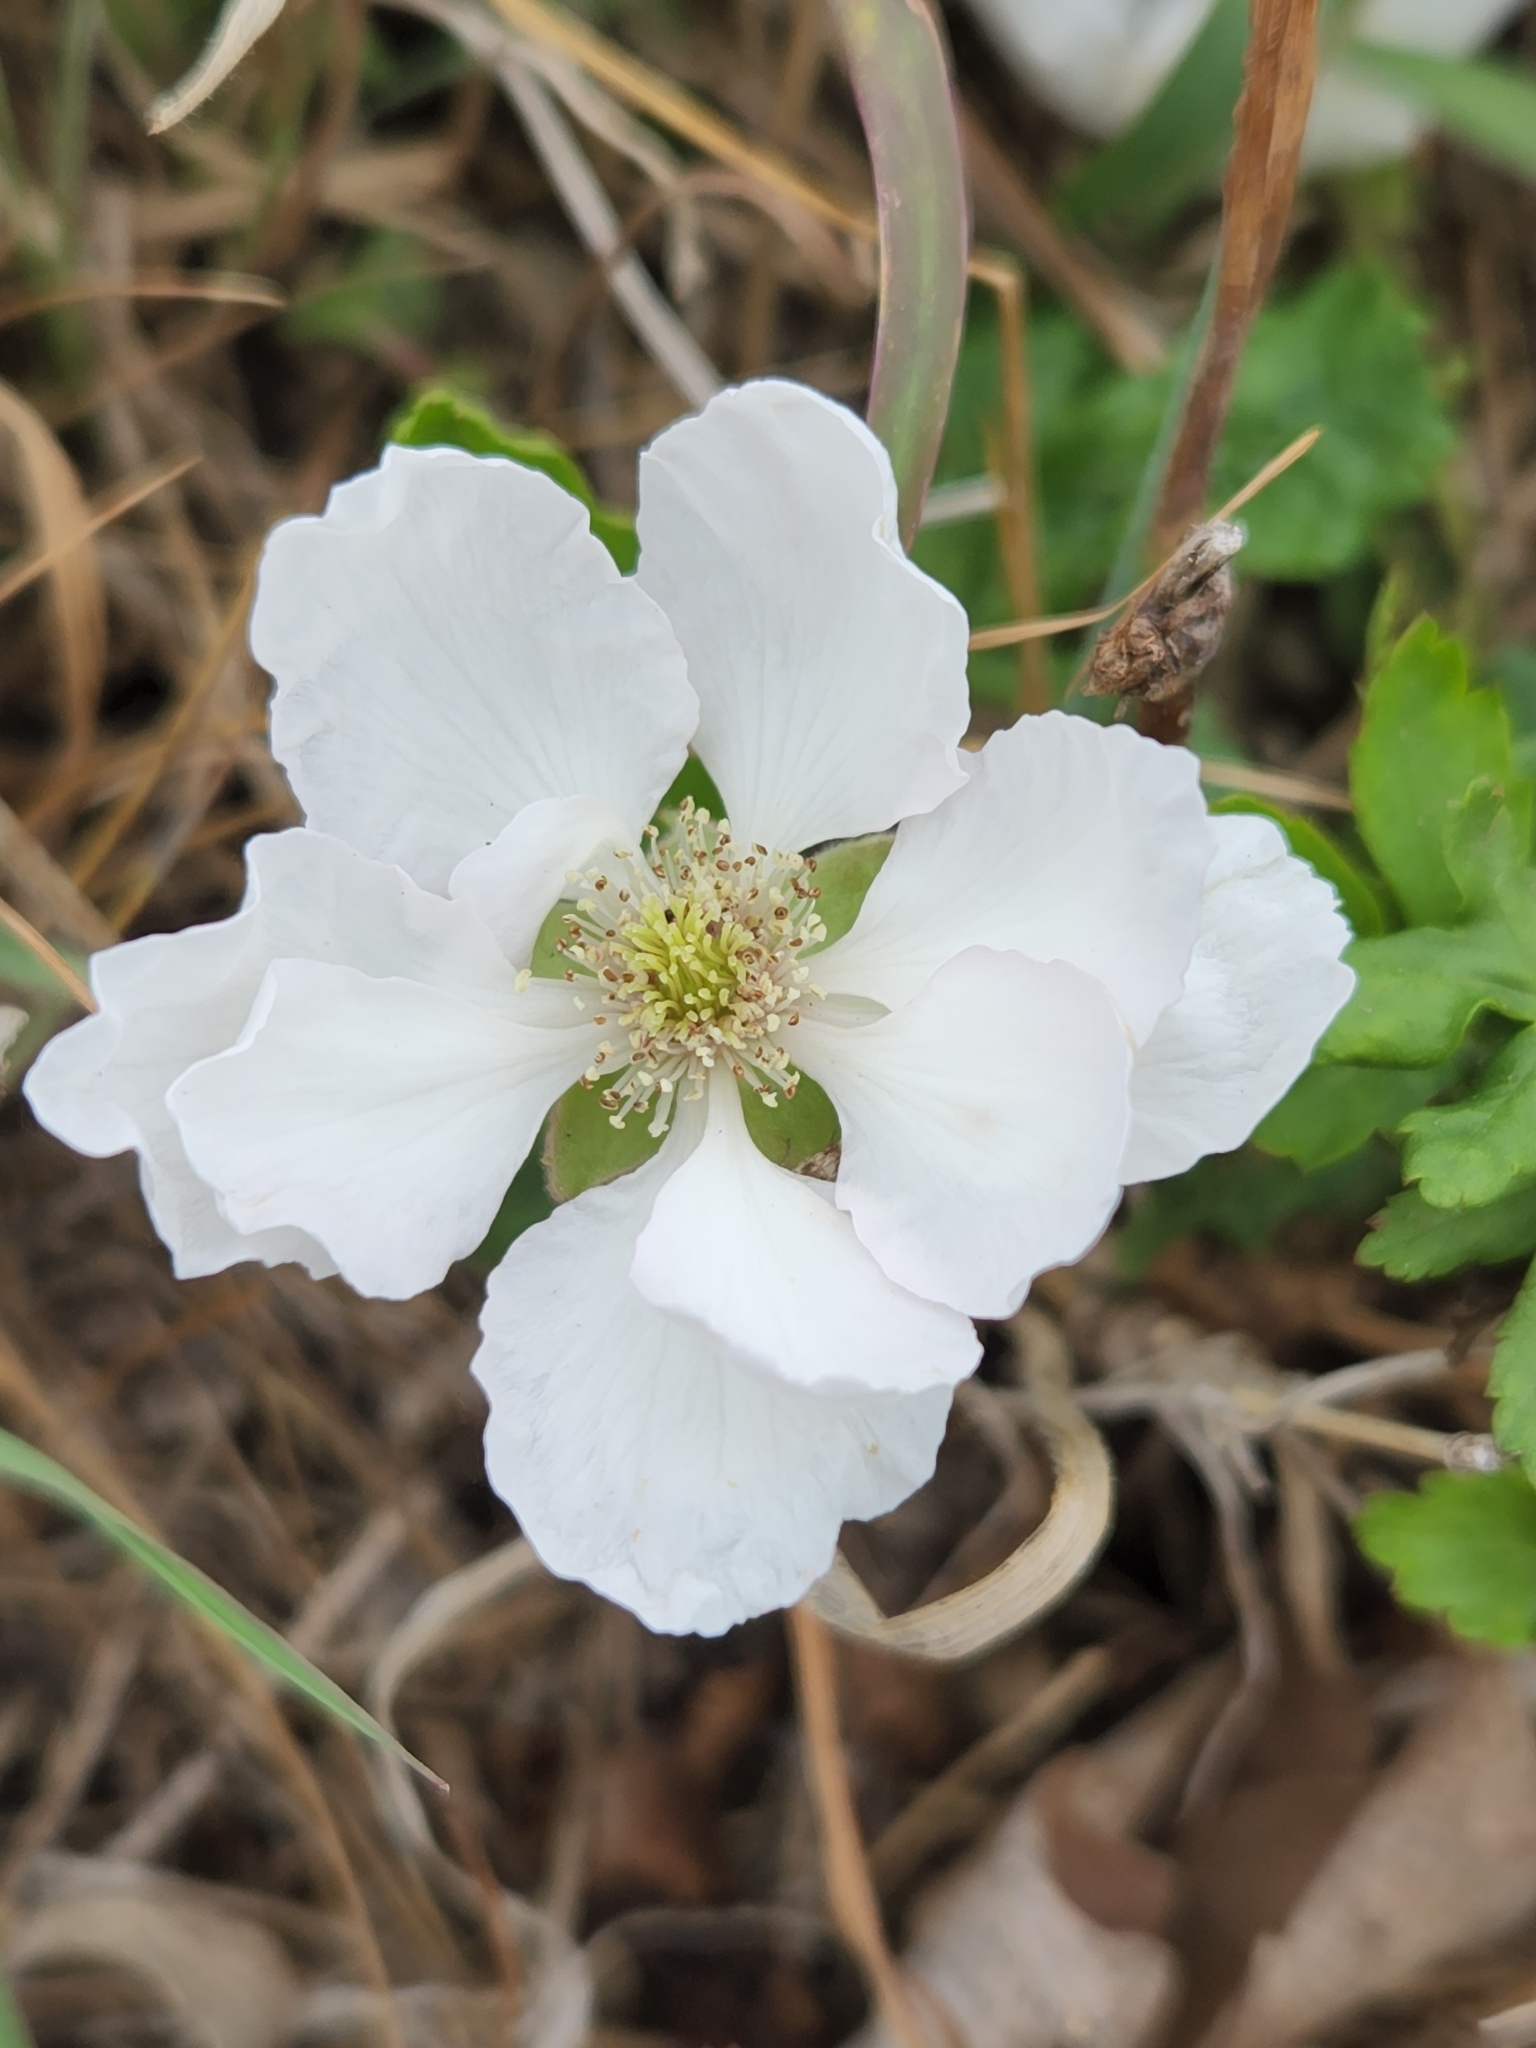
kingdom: Plantae
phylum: Tracheophyta
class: Magnoliopsida
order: Rosales
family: Rosaceae
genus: Rubus
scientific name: Rubus trivialis
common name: Southern dewberry
